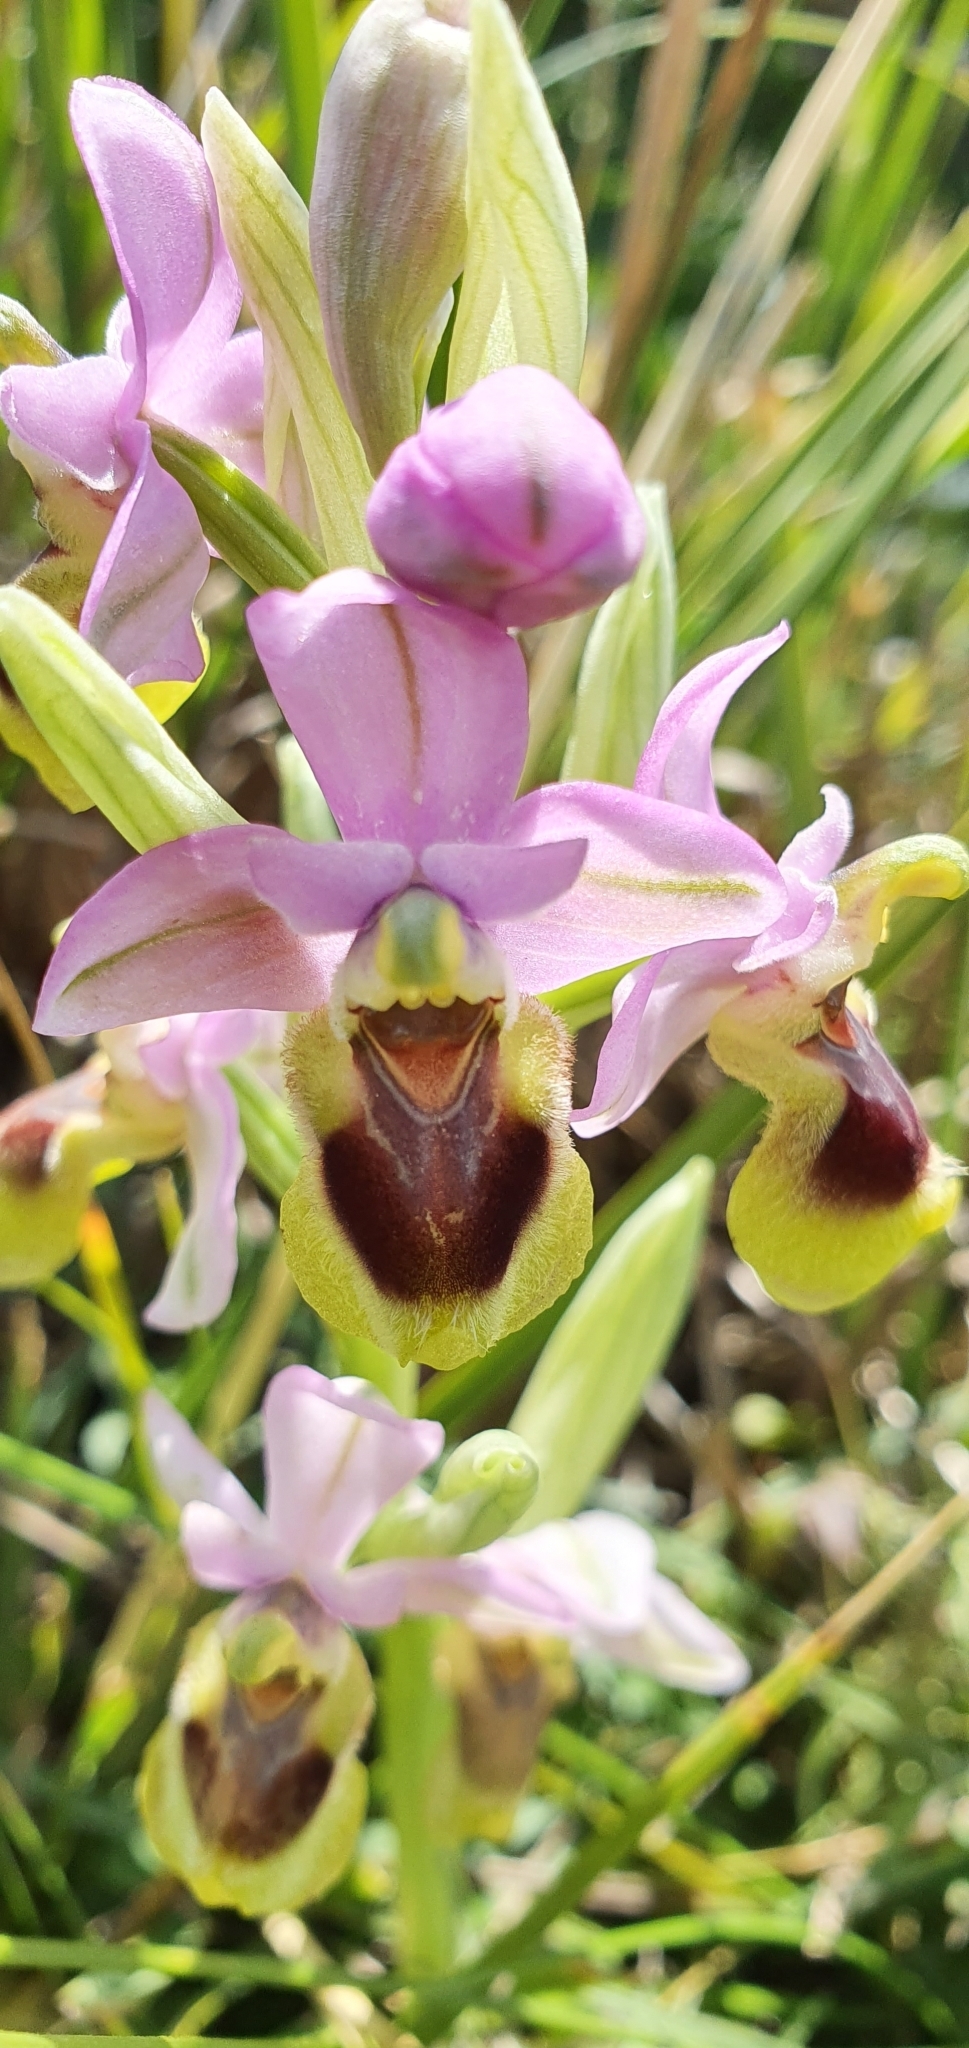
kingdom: Plantae
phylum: Tracheophyta
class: Liliopsida
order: Asparagales
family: Orchidaceae
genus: Ophrys
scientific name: Ophrys tenthredinifera
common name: Sawfly orchid
